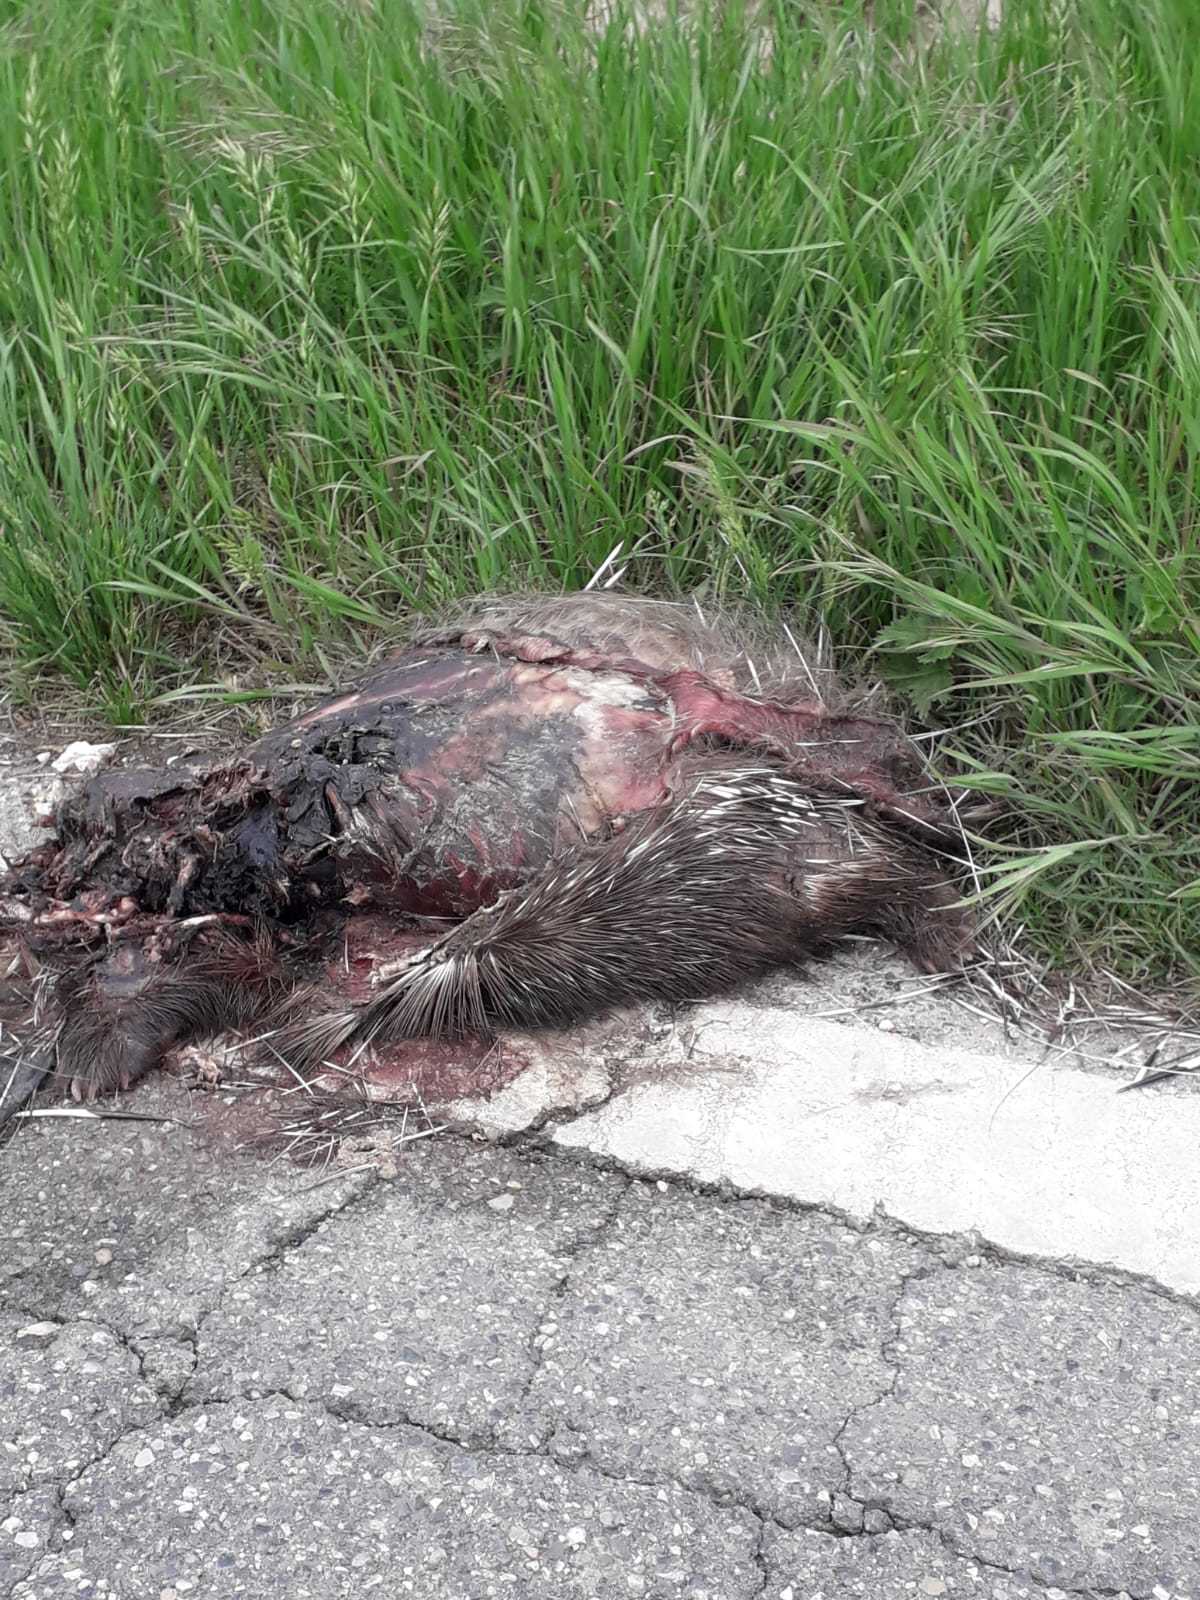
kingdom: Animalia
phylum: Chordata
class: Mammalia
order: Rodentia
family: Hystricidae
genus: Hystrix
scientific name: Hystrix cristata
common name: Crested porcupine
